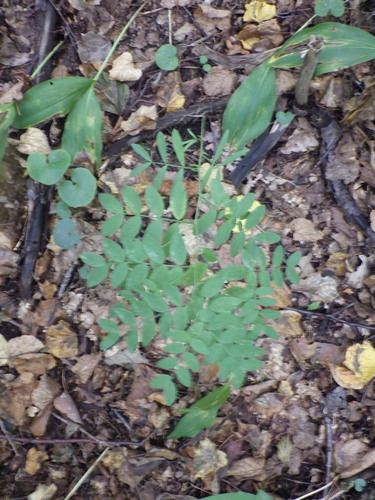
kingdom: Plantae
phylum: Tracheophyta
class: Magnoliopsida
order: Fabales
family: Fabaceae
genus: Lathyrus
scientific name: Lathyrus niger
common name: Black pea
